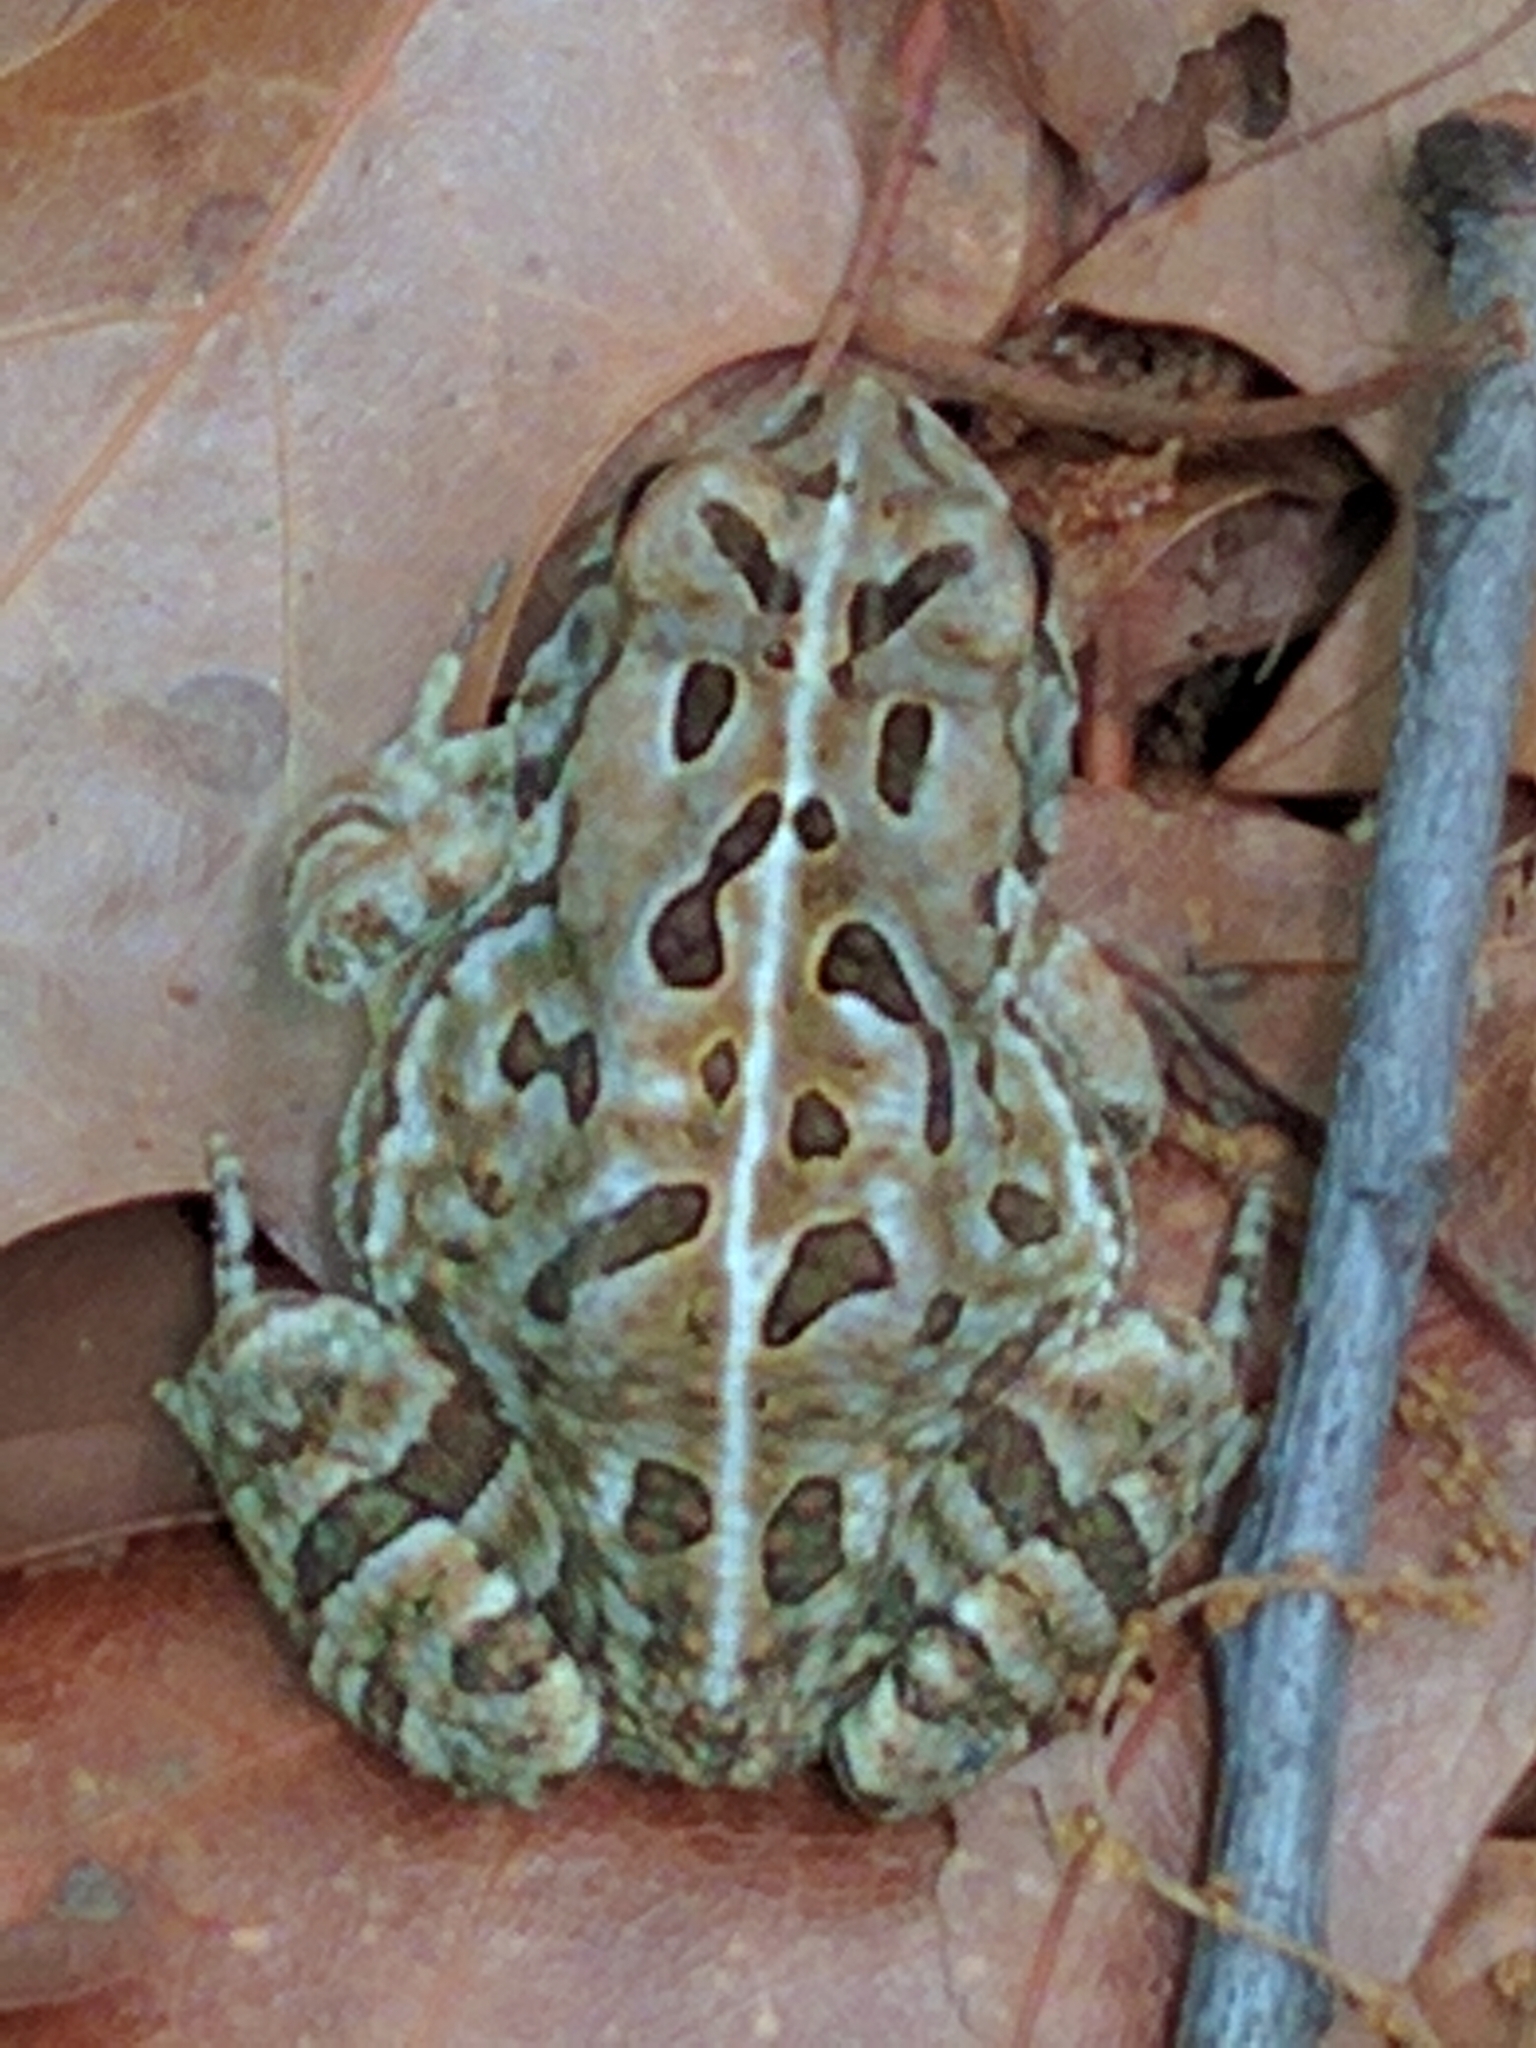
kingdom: Animalia
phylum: Chordata
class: Amphibia
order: Anura
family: Bufonidae
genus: Anaxyrus
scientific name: Anaxyrus fowleri
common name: Fowler's toad
